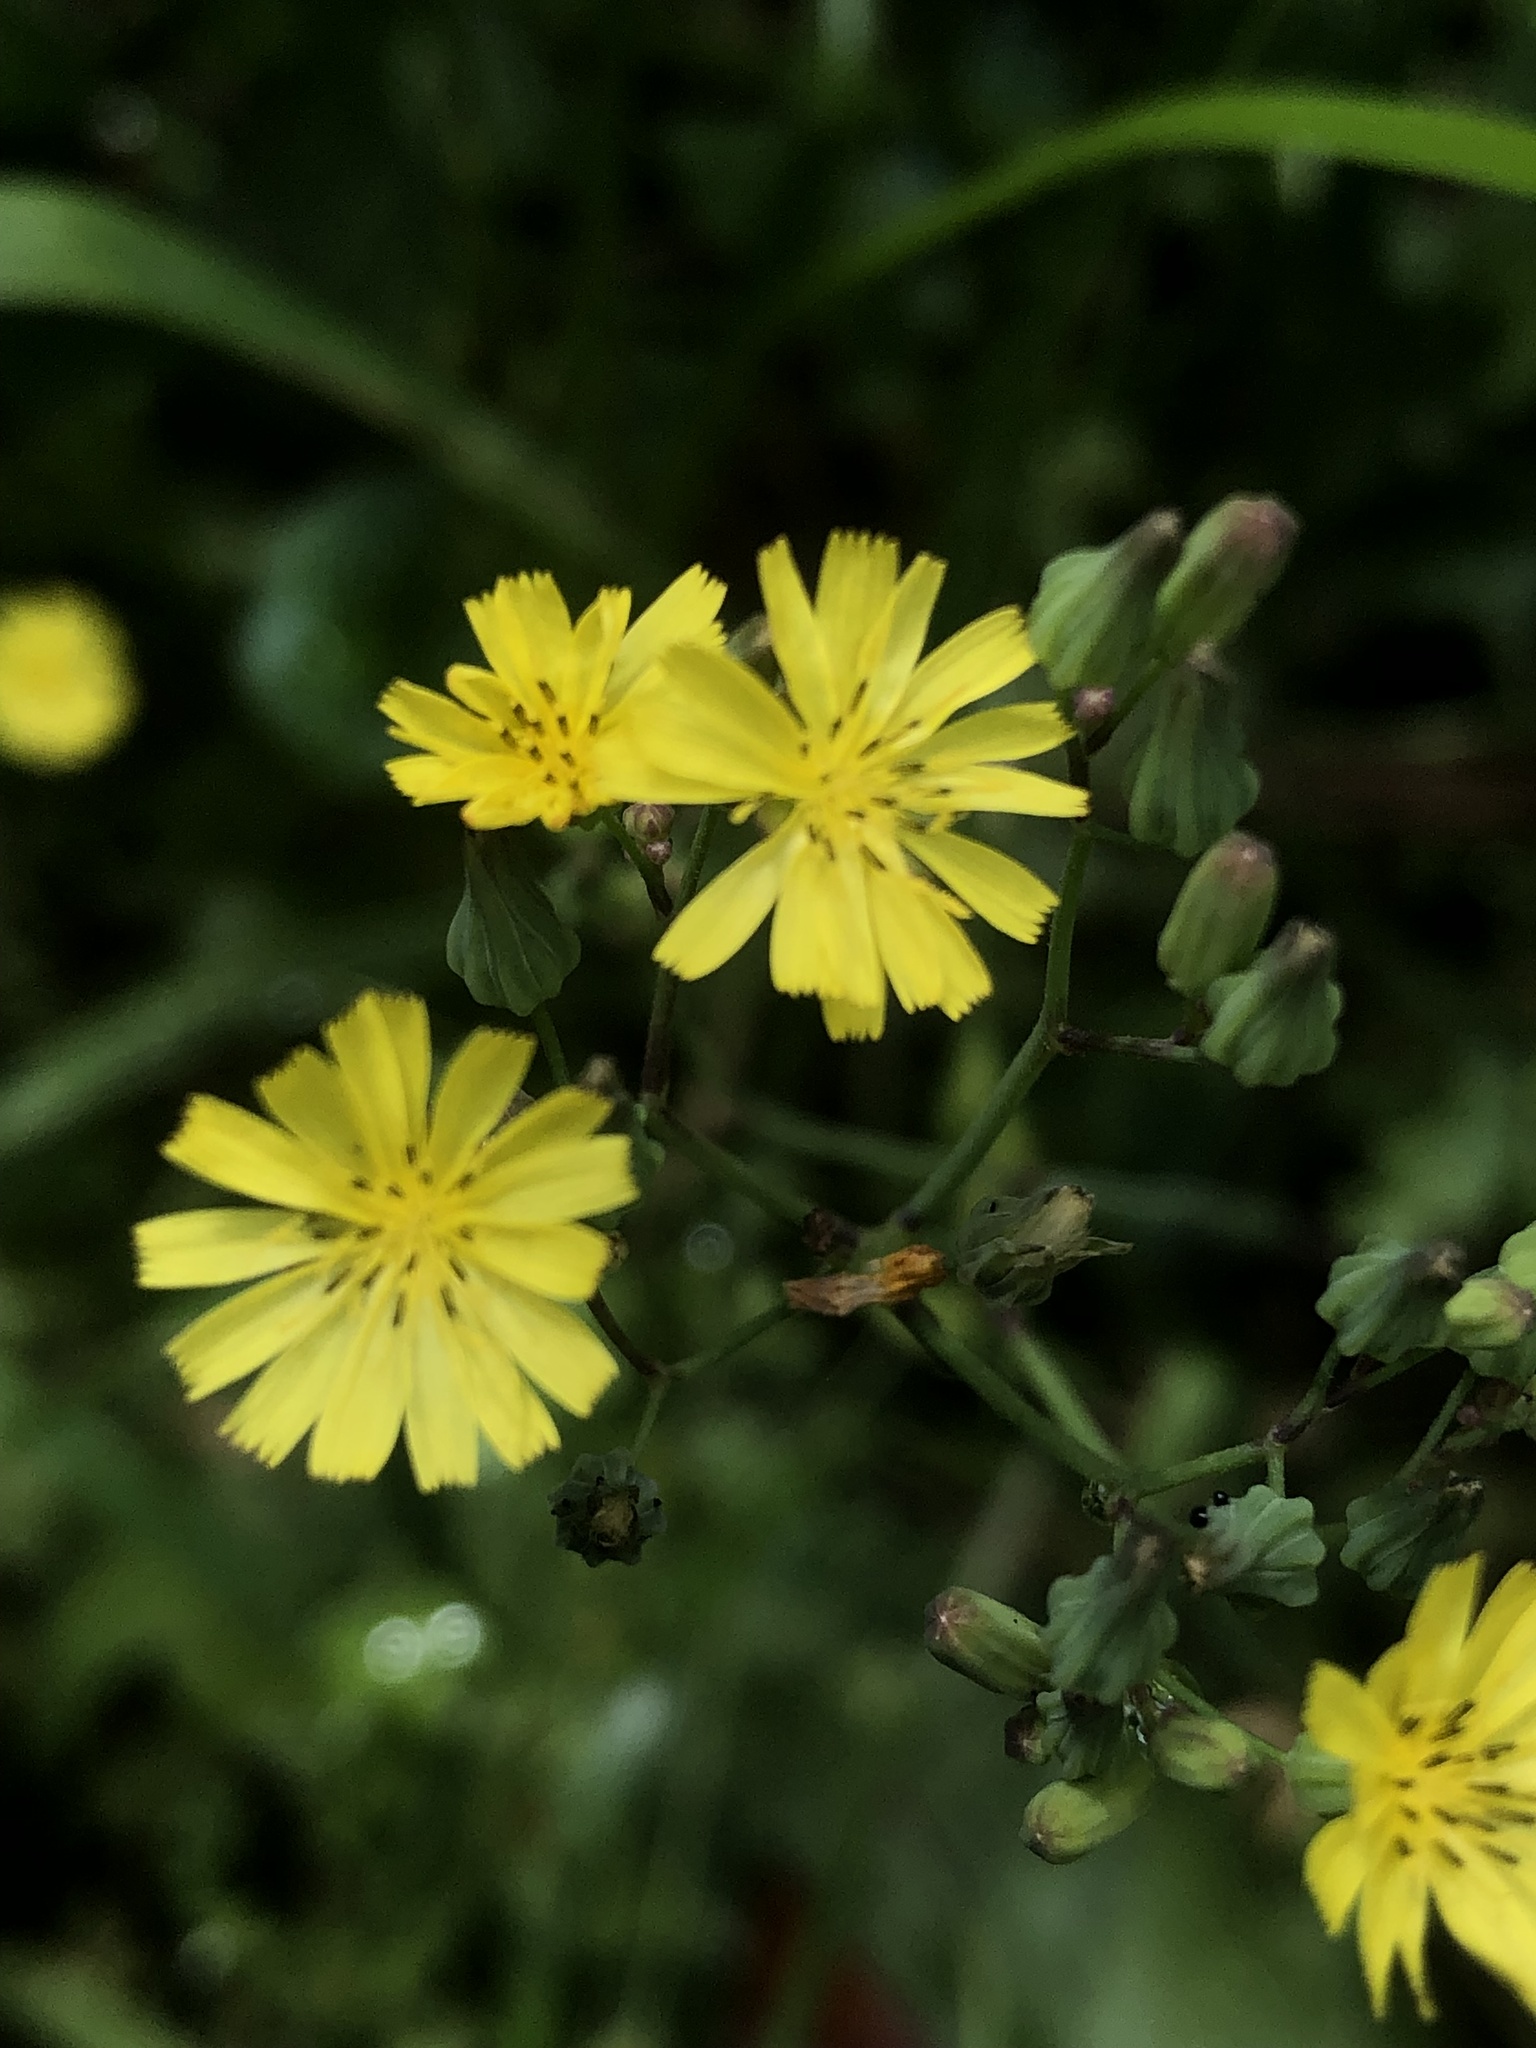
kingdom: Plantae
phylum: Tracheophyta
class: Magnoliopsida
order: Asterales
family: Asteraceae
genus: Youngia
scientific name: Youngia japonica
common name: Oriental false hawksbeard
